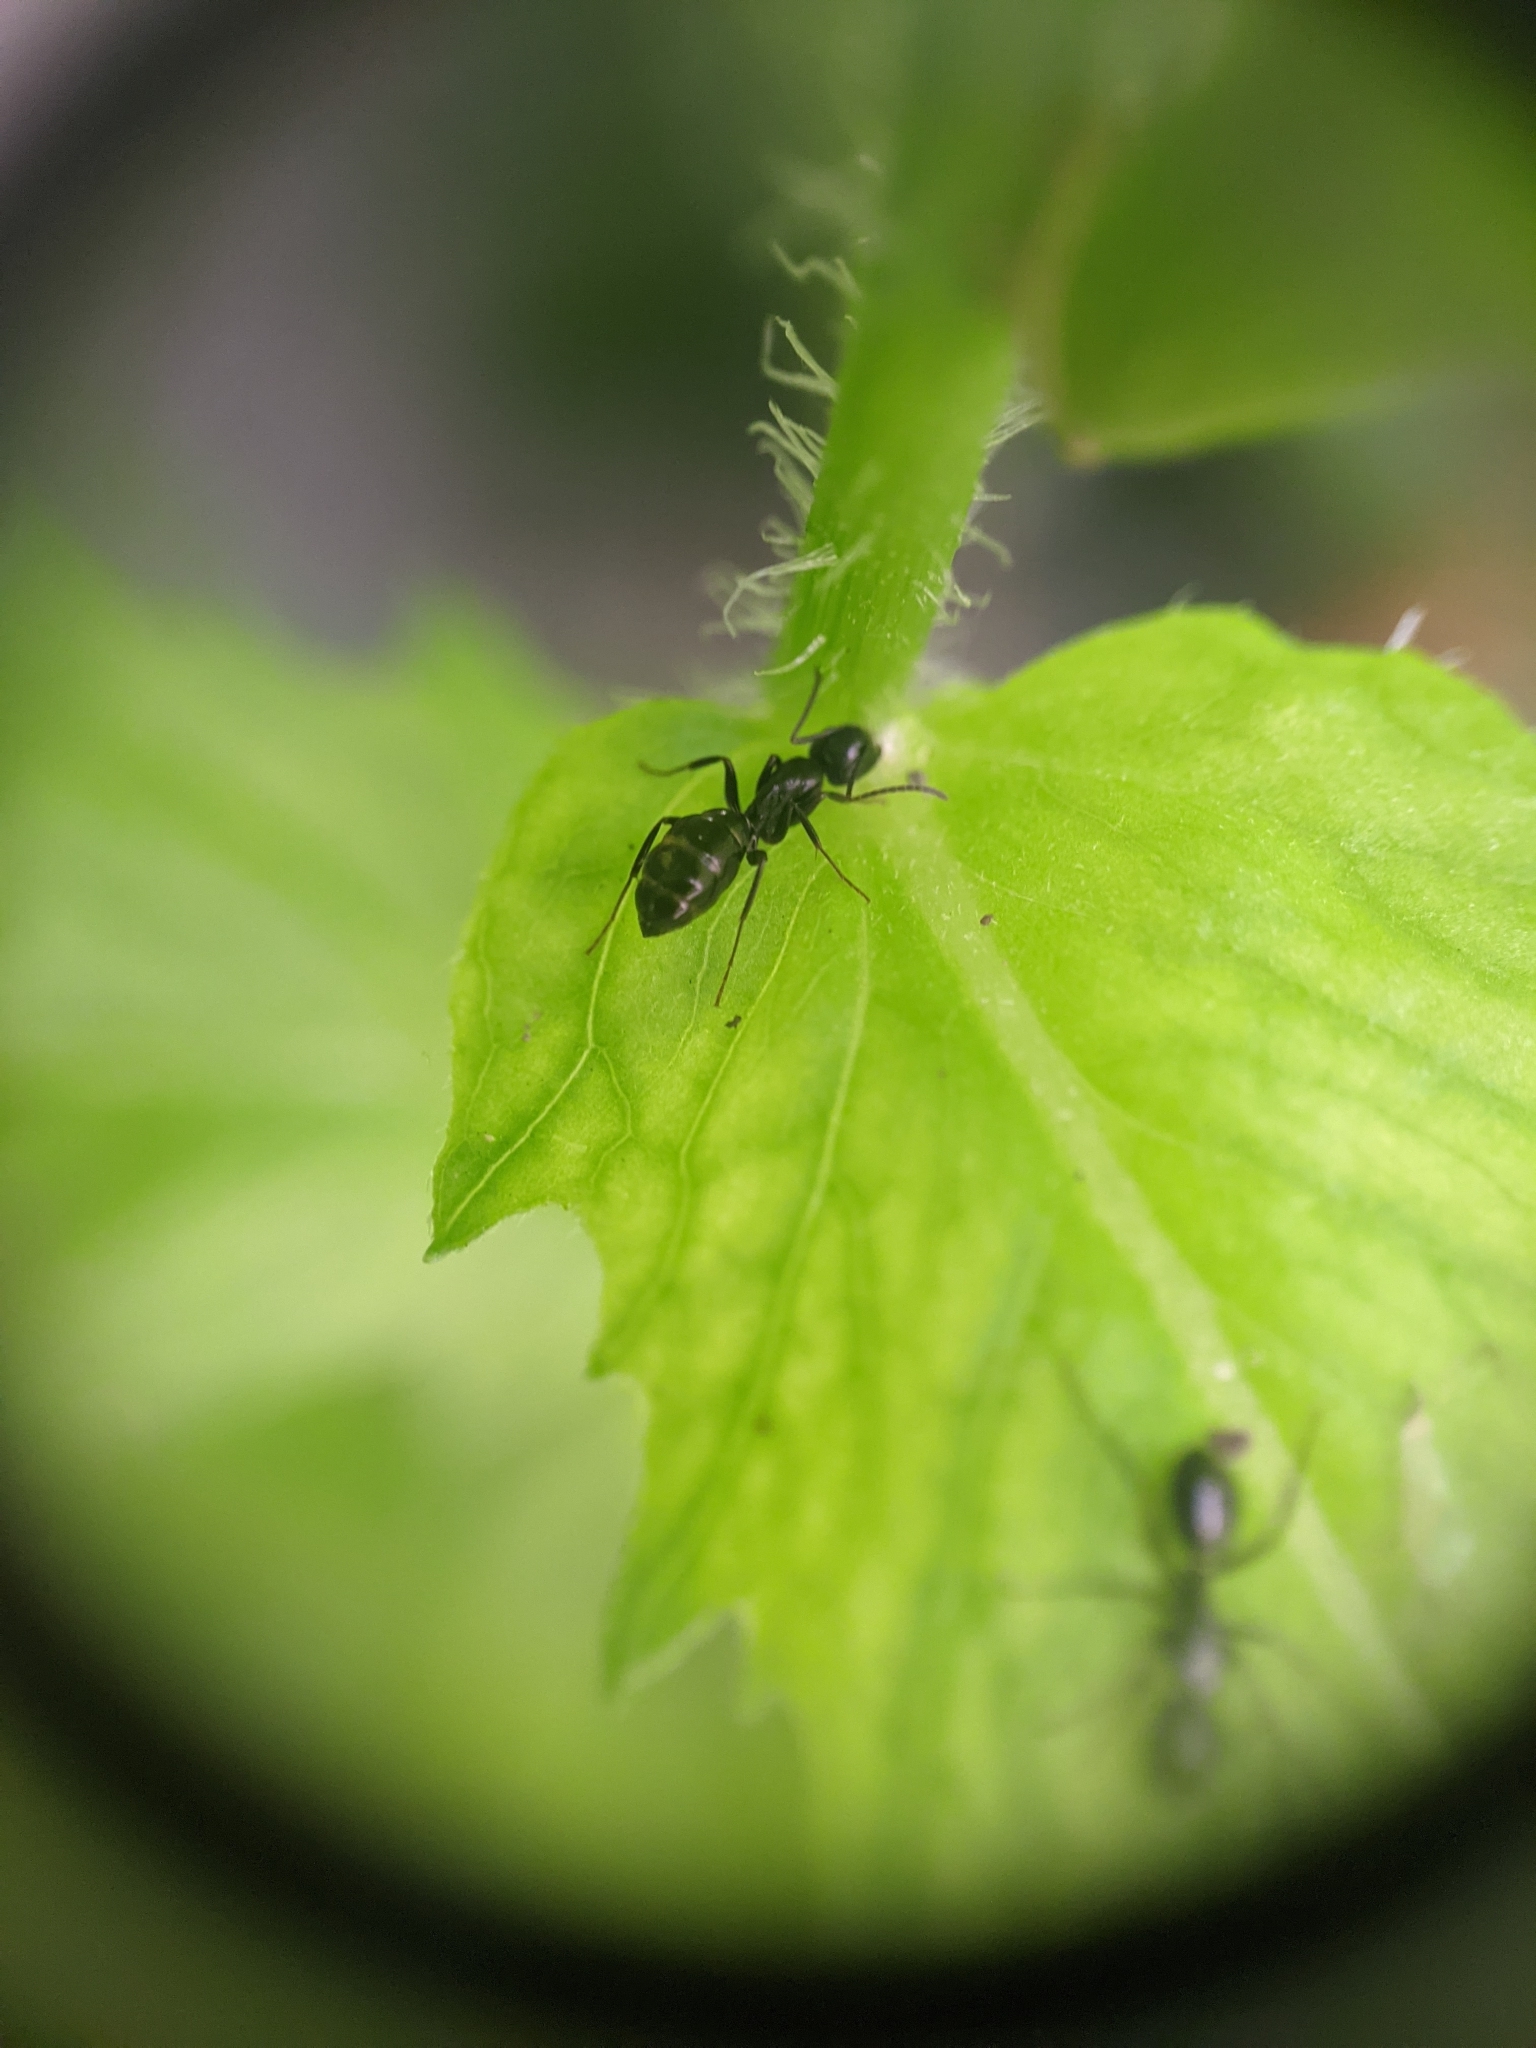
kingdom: Animalia
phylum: Arthropoda
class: Insecta
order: Hymenoptera
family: Formicidae
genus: Camponotus
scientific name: Camponotus nearcticus
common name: Smaller carpenter ant
